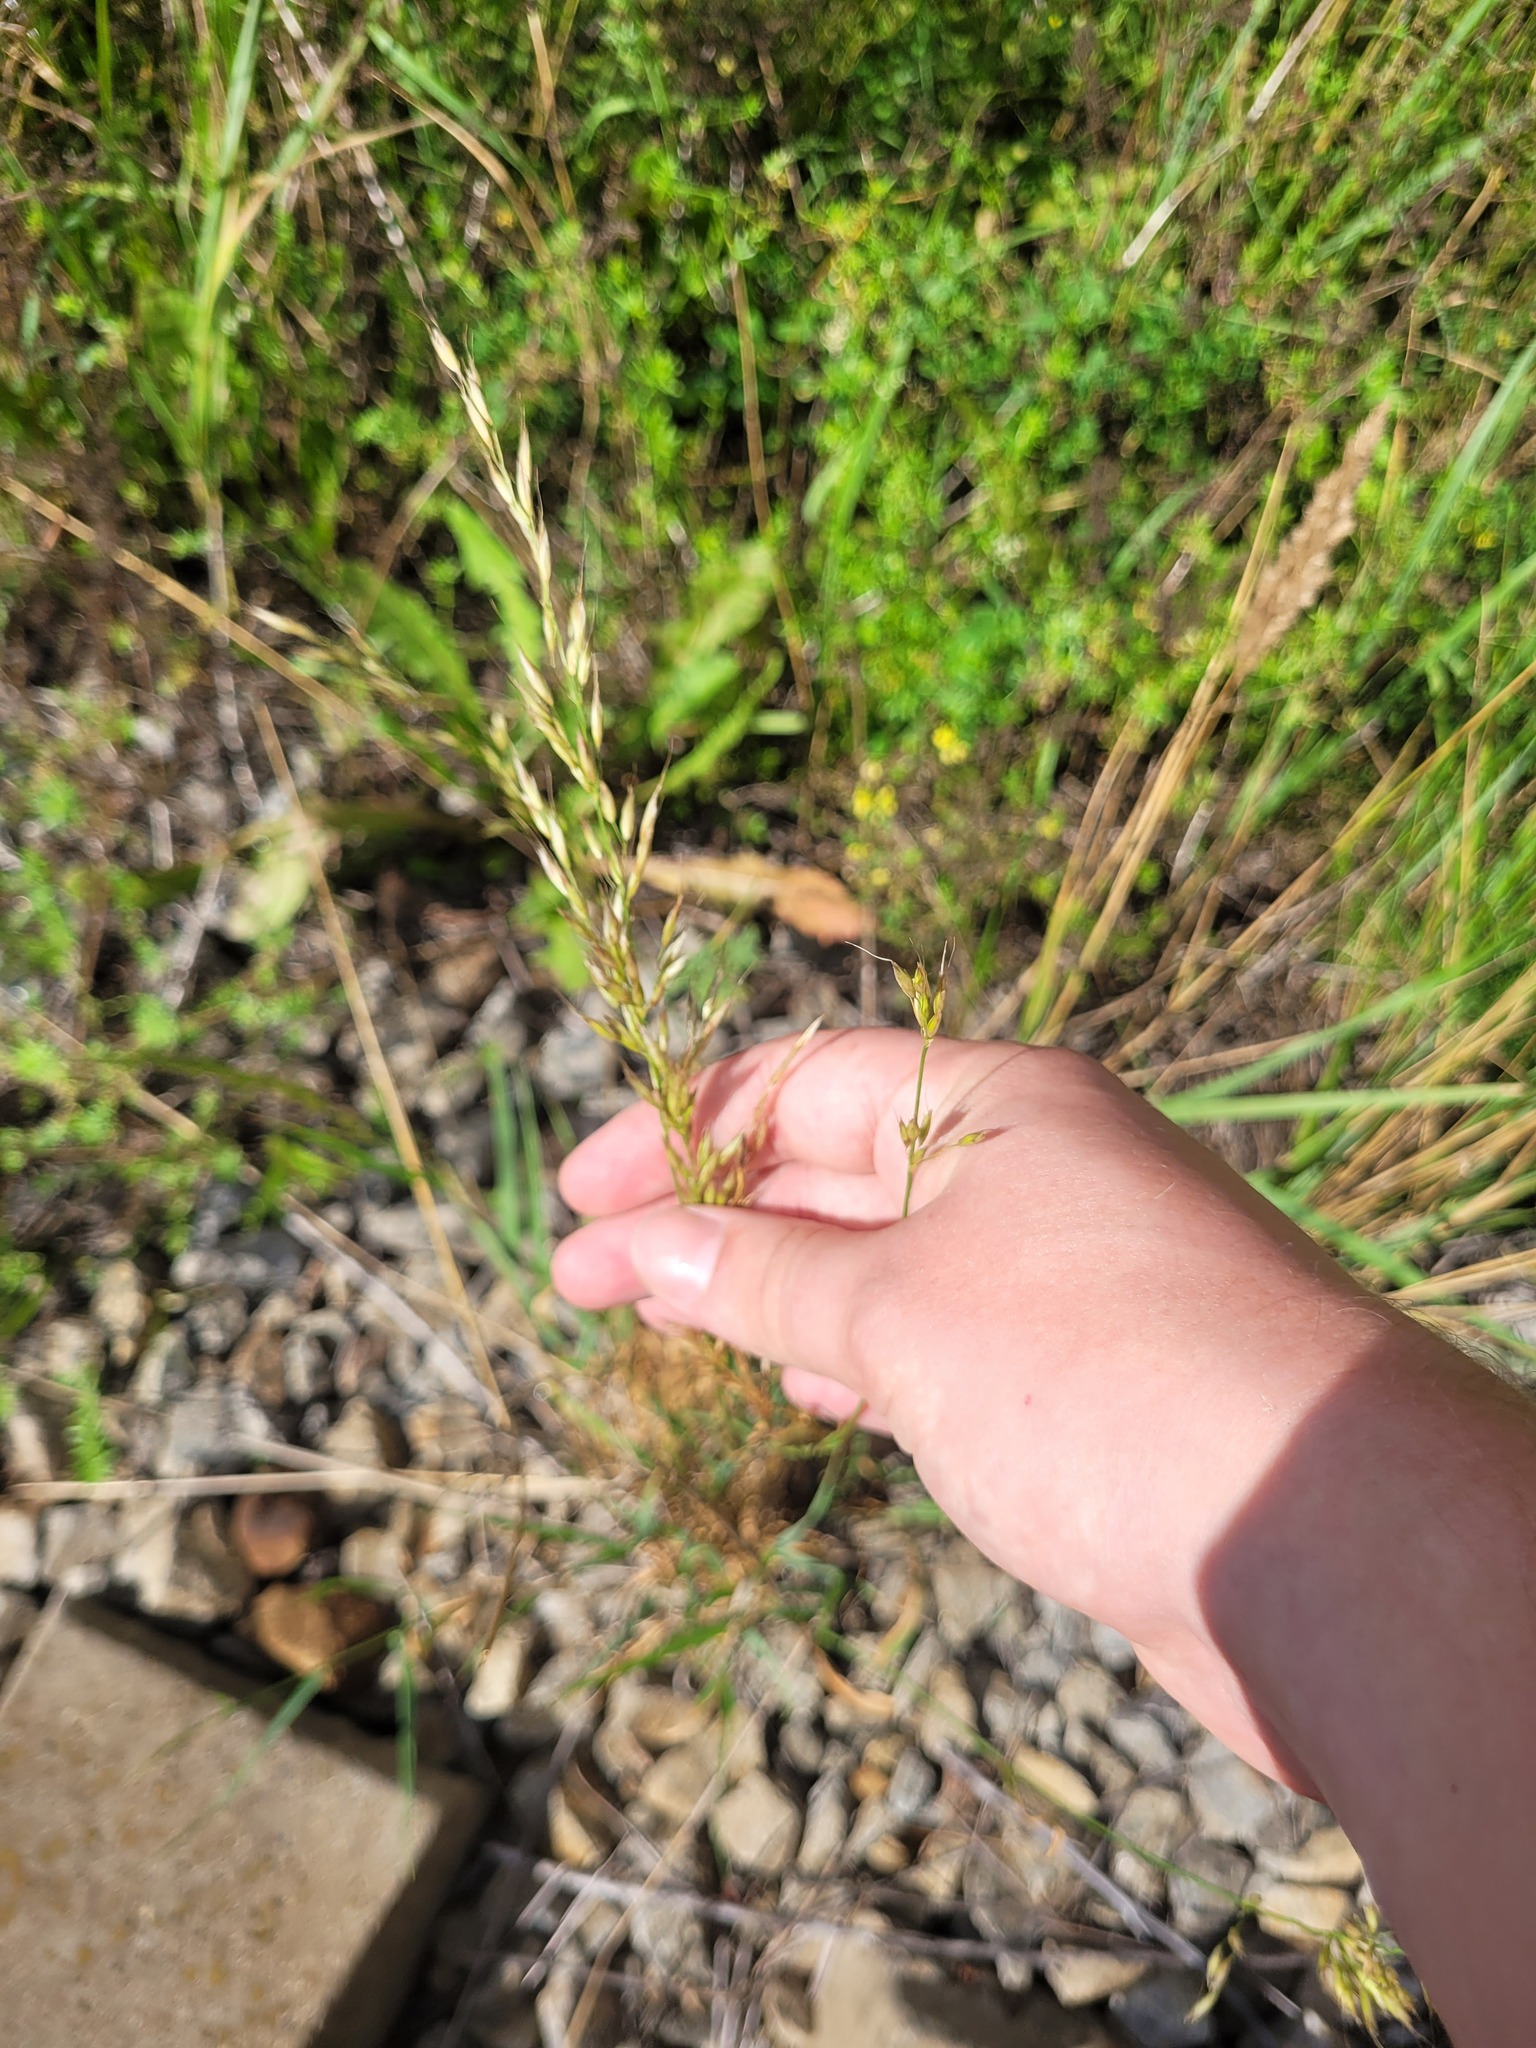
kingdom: Plantae
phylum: Tracheophyta
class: Liliopsida
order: Poales
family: Poaceae
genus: Arrhenatherum
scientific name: Arrhenatherum elatius
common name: Tall oatgrass
